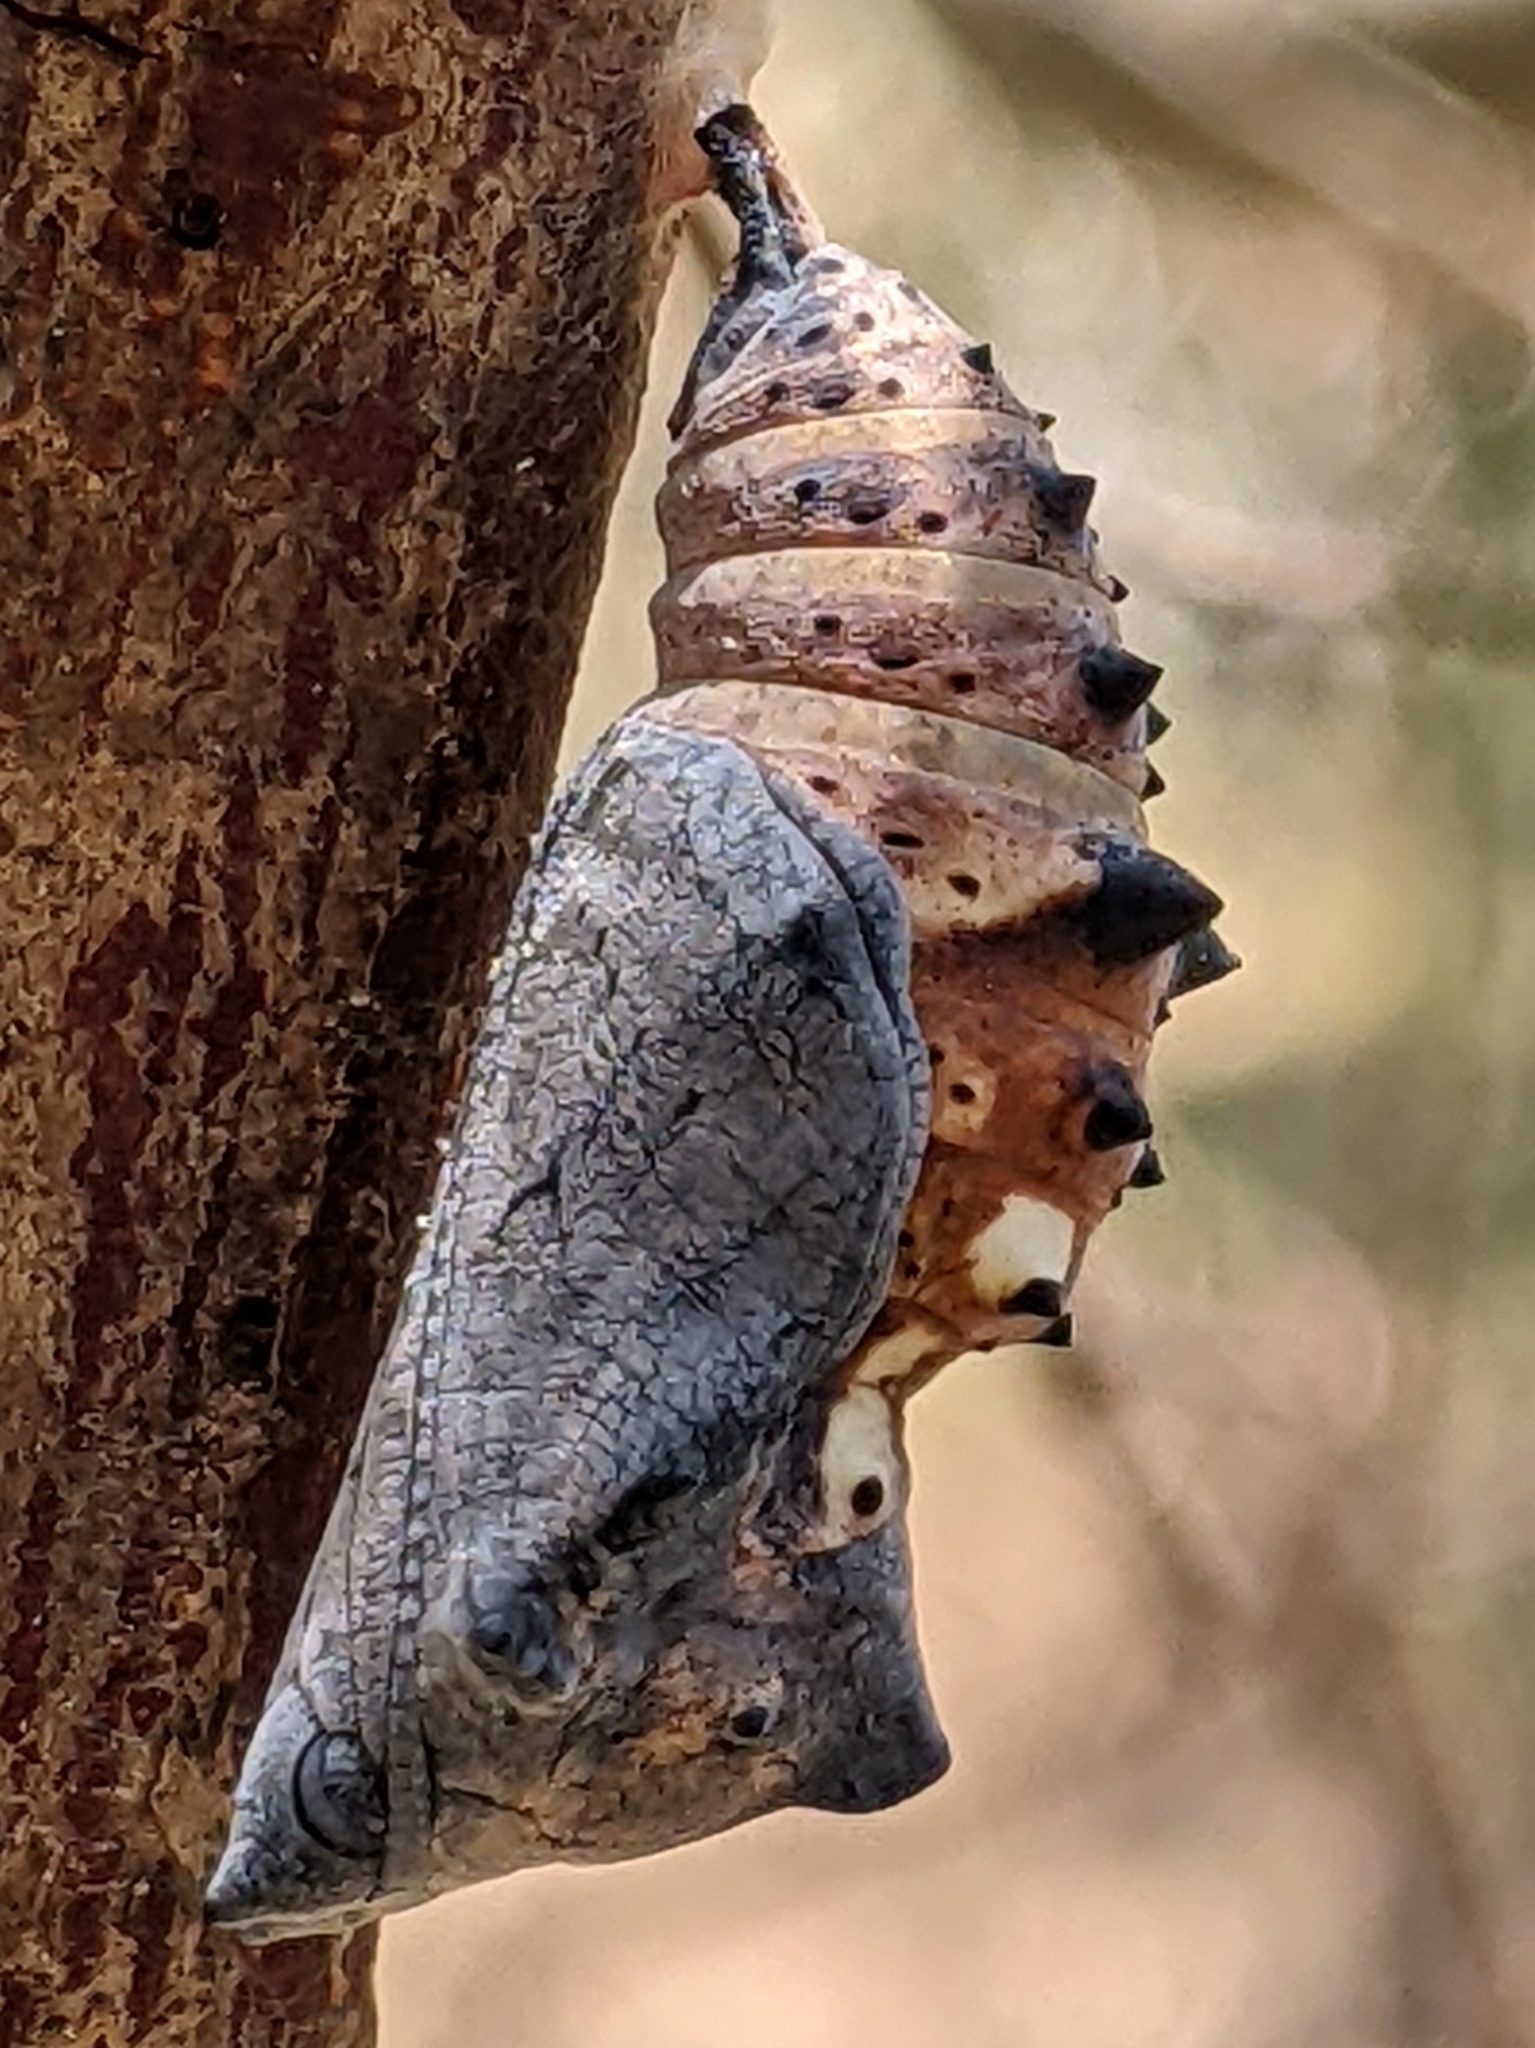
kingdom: Animalia
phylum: Arthropoda
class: Insecta
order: Lepidoptera
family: Nymphalidae
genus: Nymphalis
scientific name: Nymphalis californica
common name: California tortoiseshell
